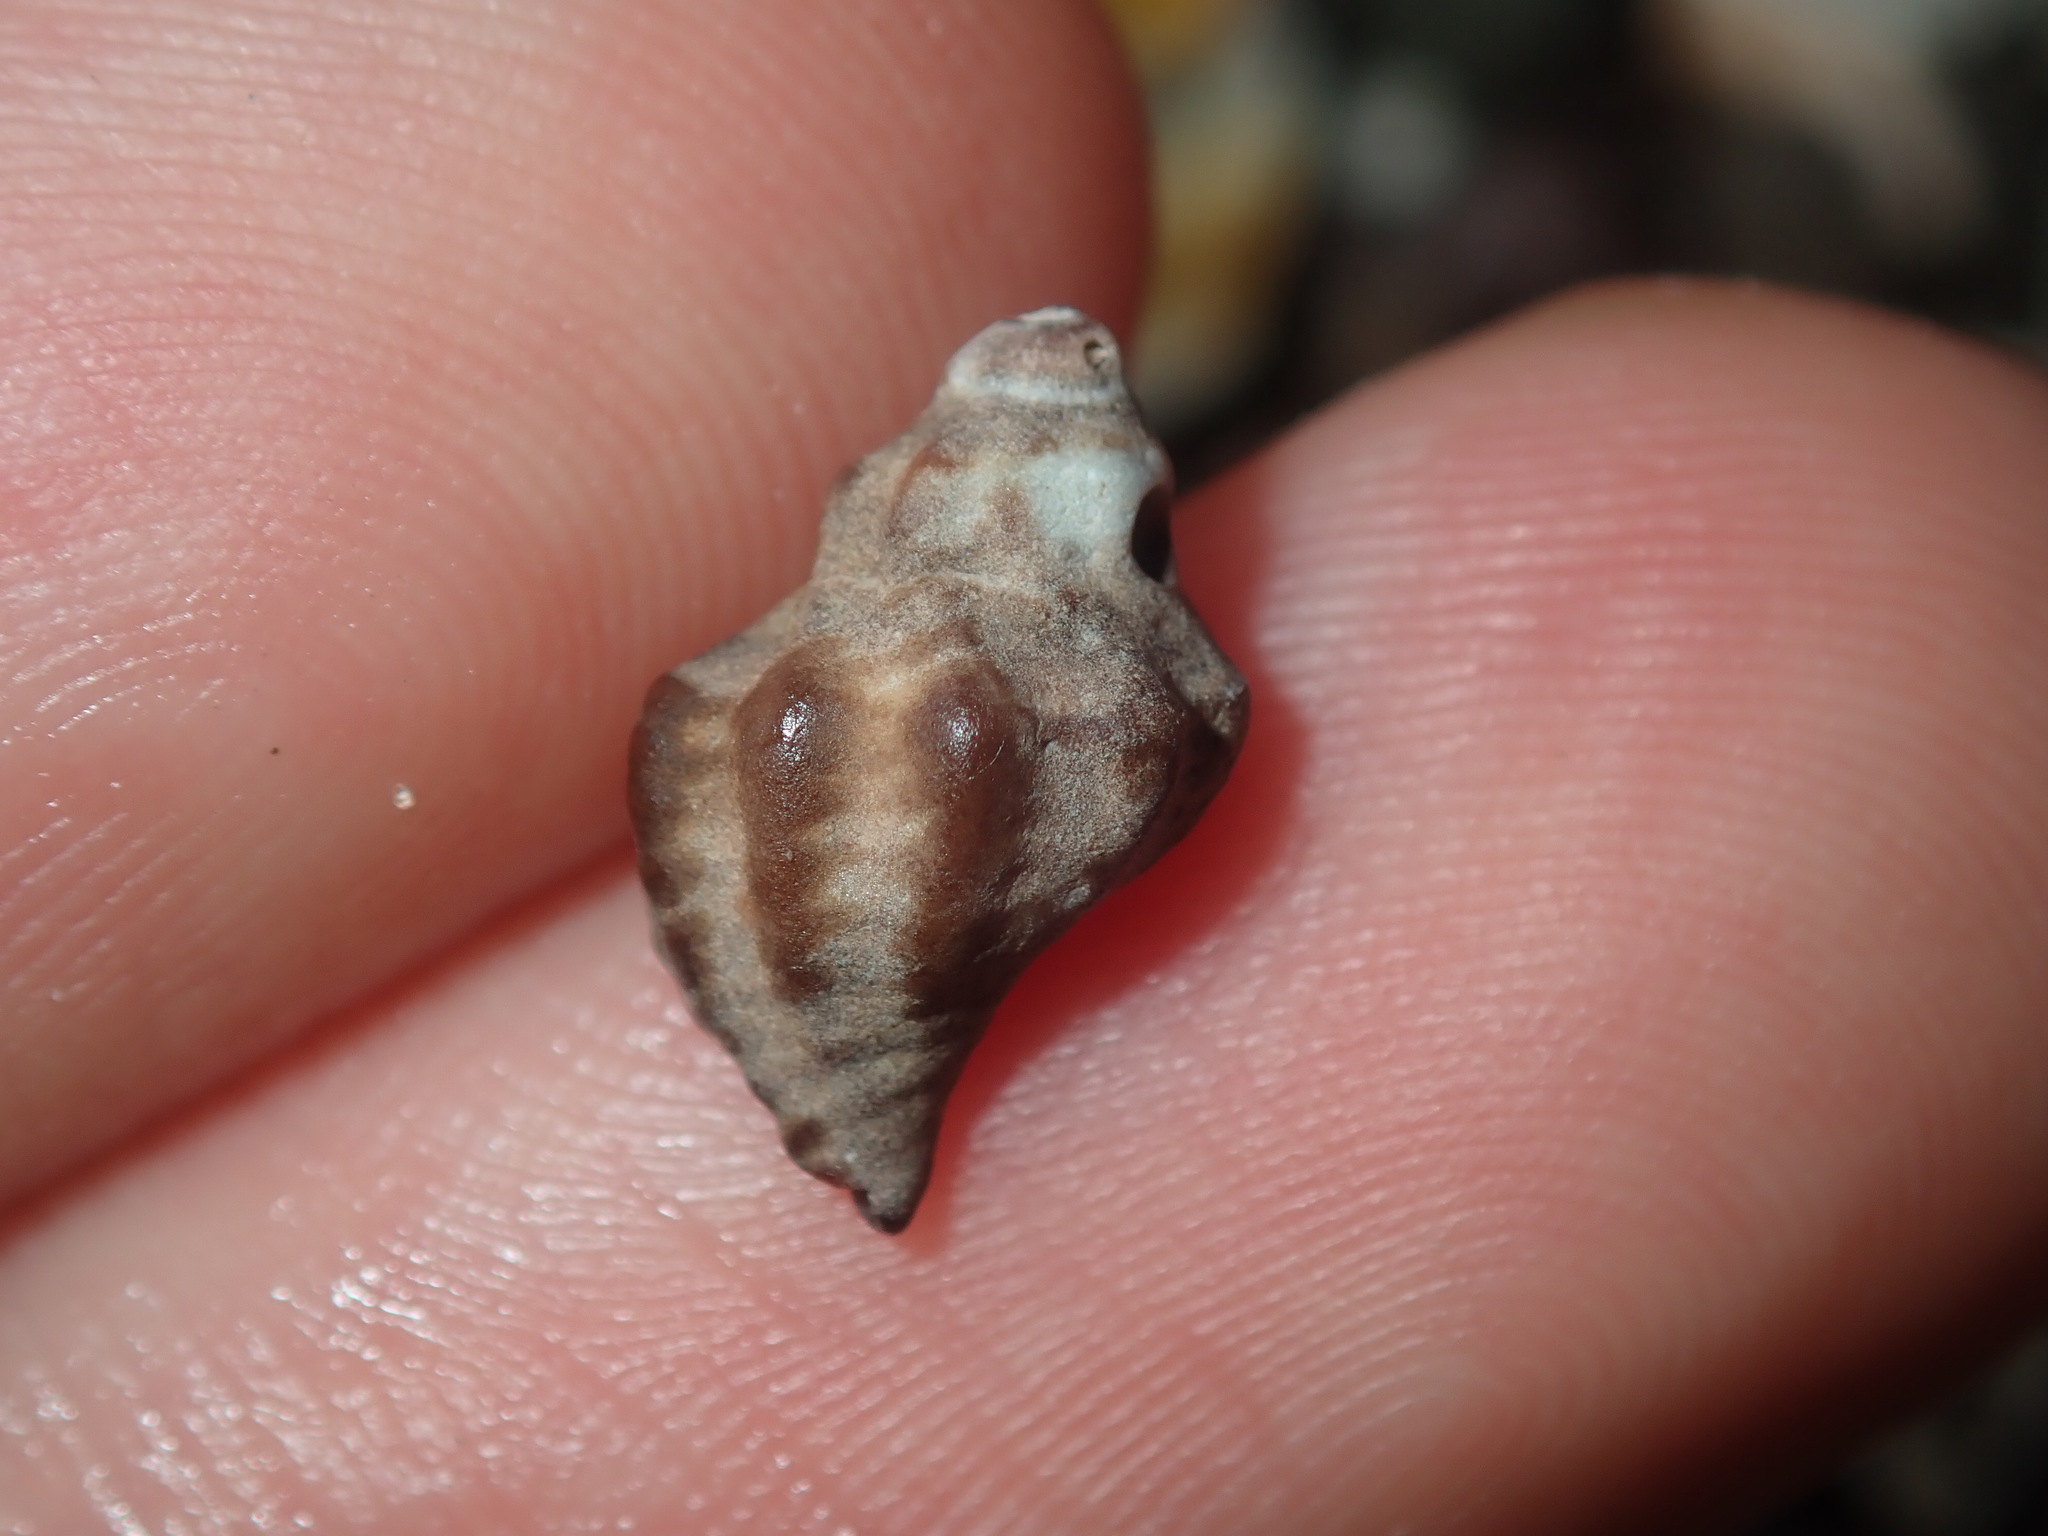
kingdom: Animalia
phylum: Mollusca
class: Gastropoda
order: Neogastropoda
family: Muricidae
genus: Bedeva
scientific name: Bedeva paivae
